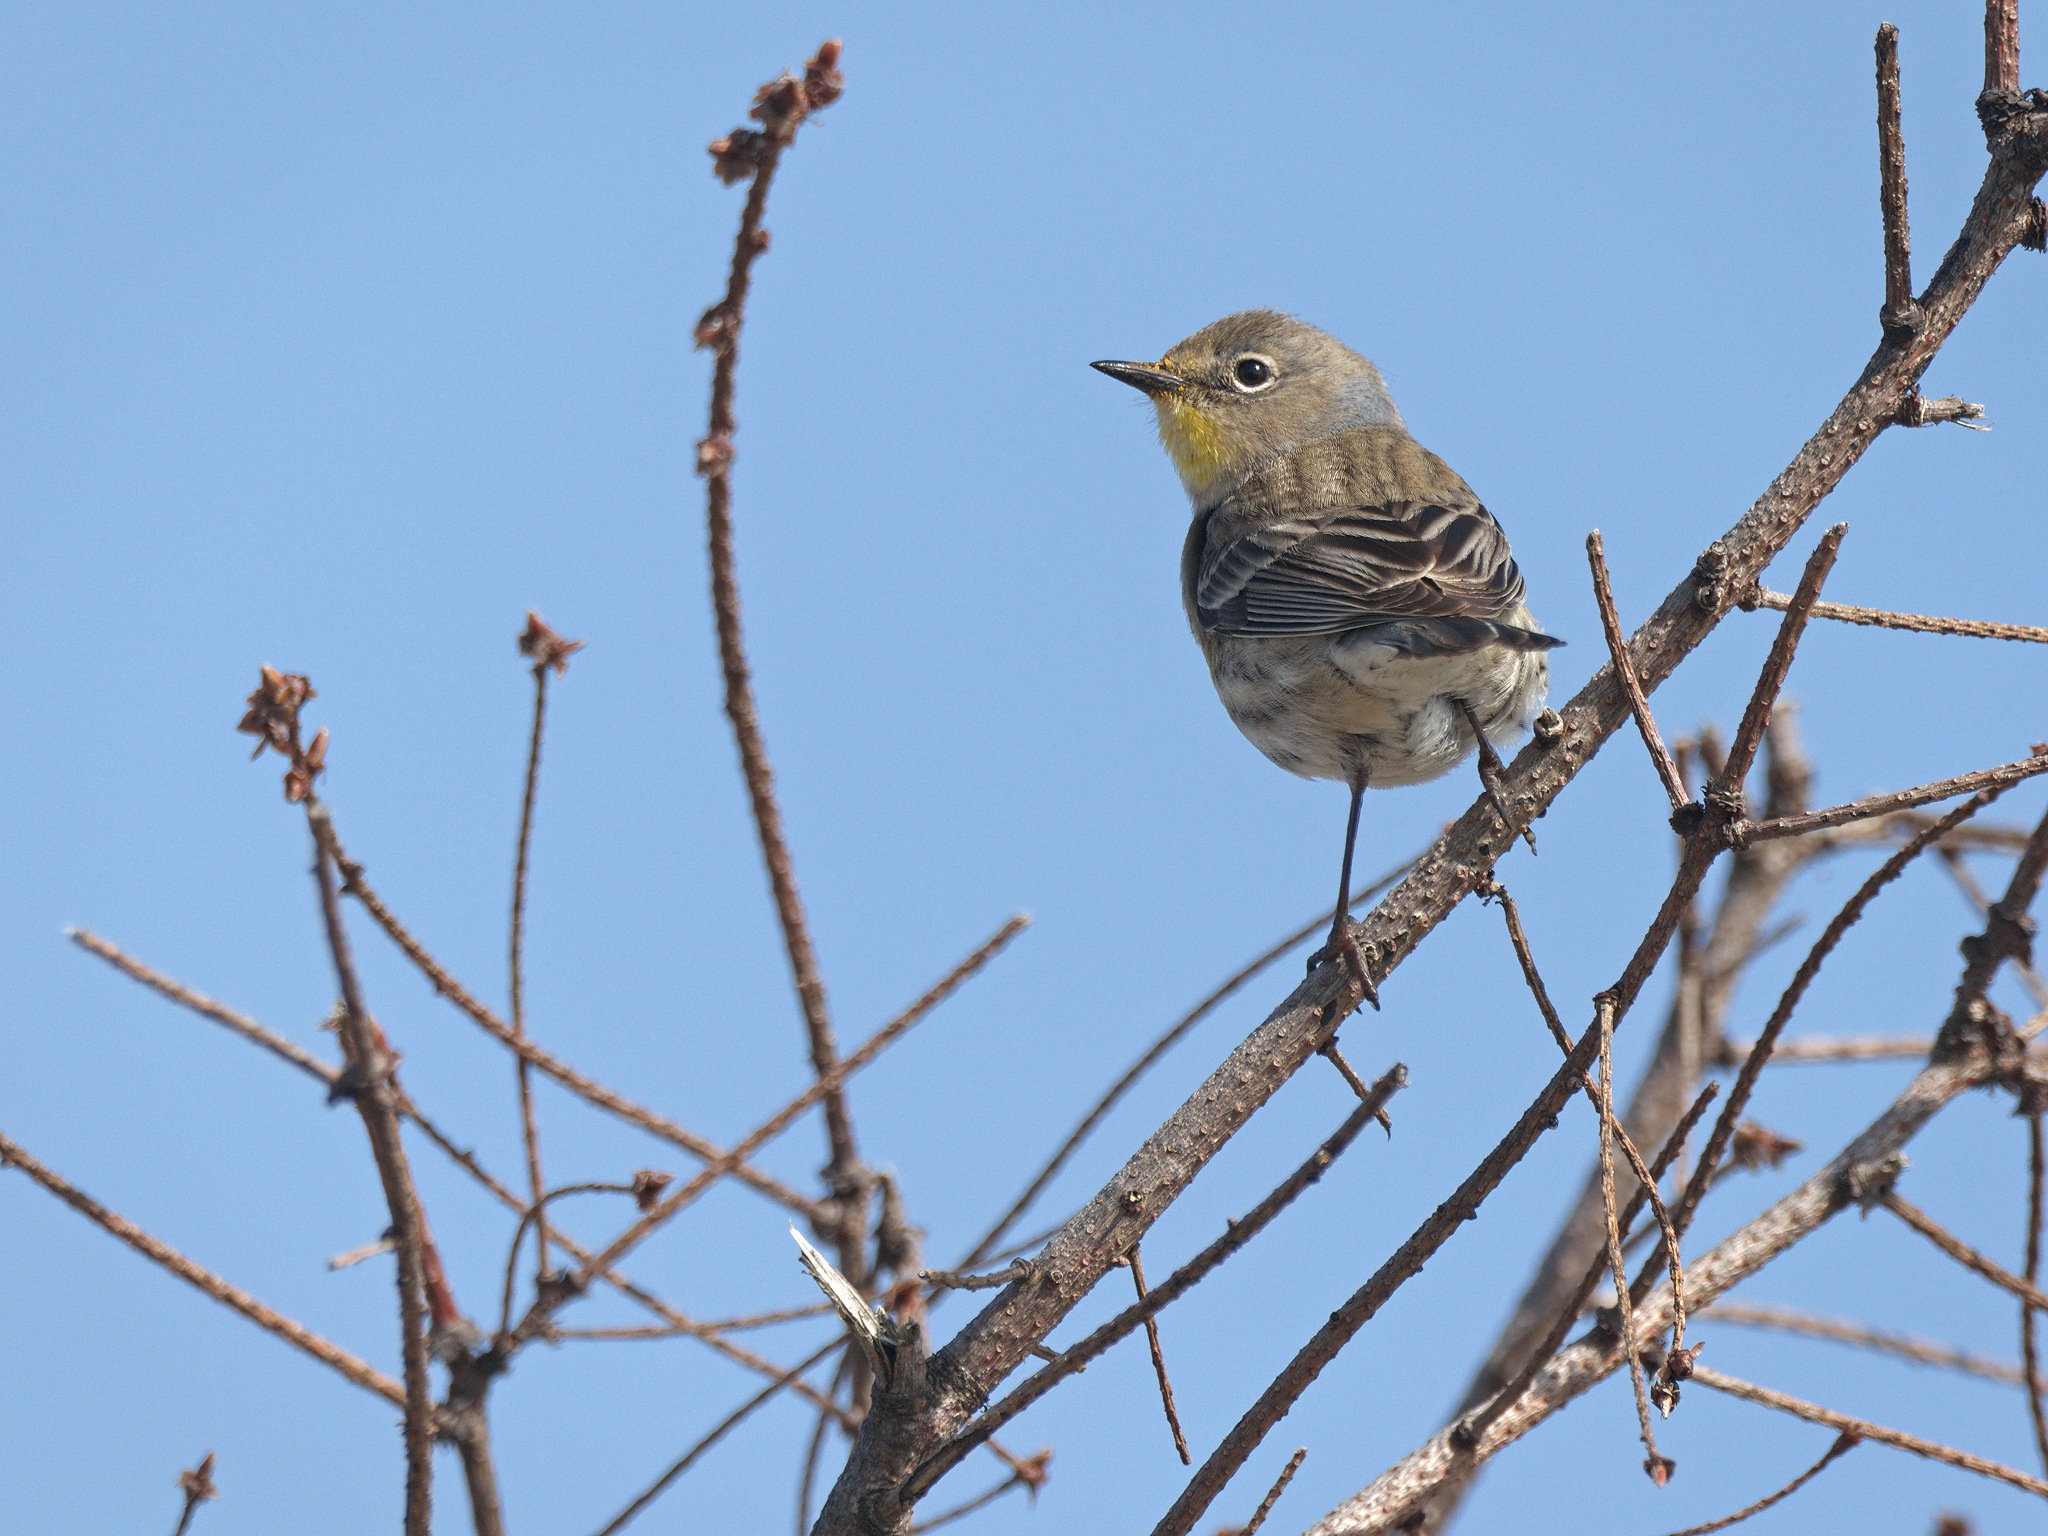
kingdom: Animalia
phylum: Chordata
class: Aves
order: Passeriformes
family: Parulidae
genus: Setophaga
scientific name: Setophaga auduboni
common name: Audubon's warbler
